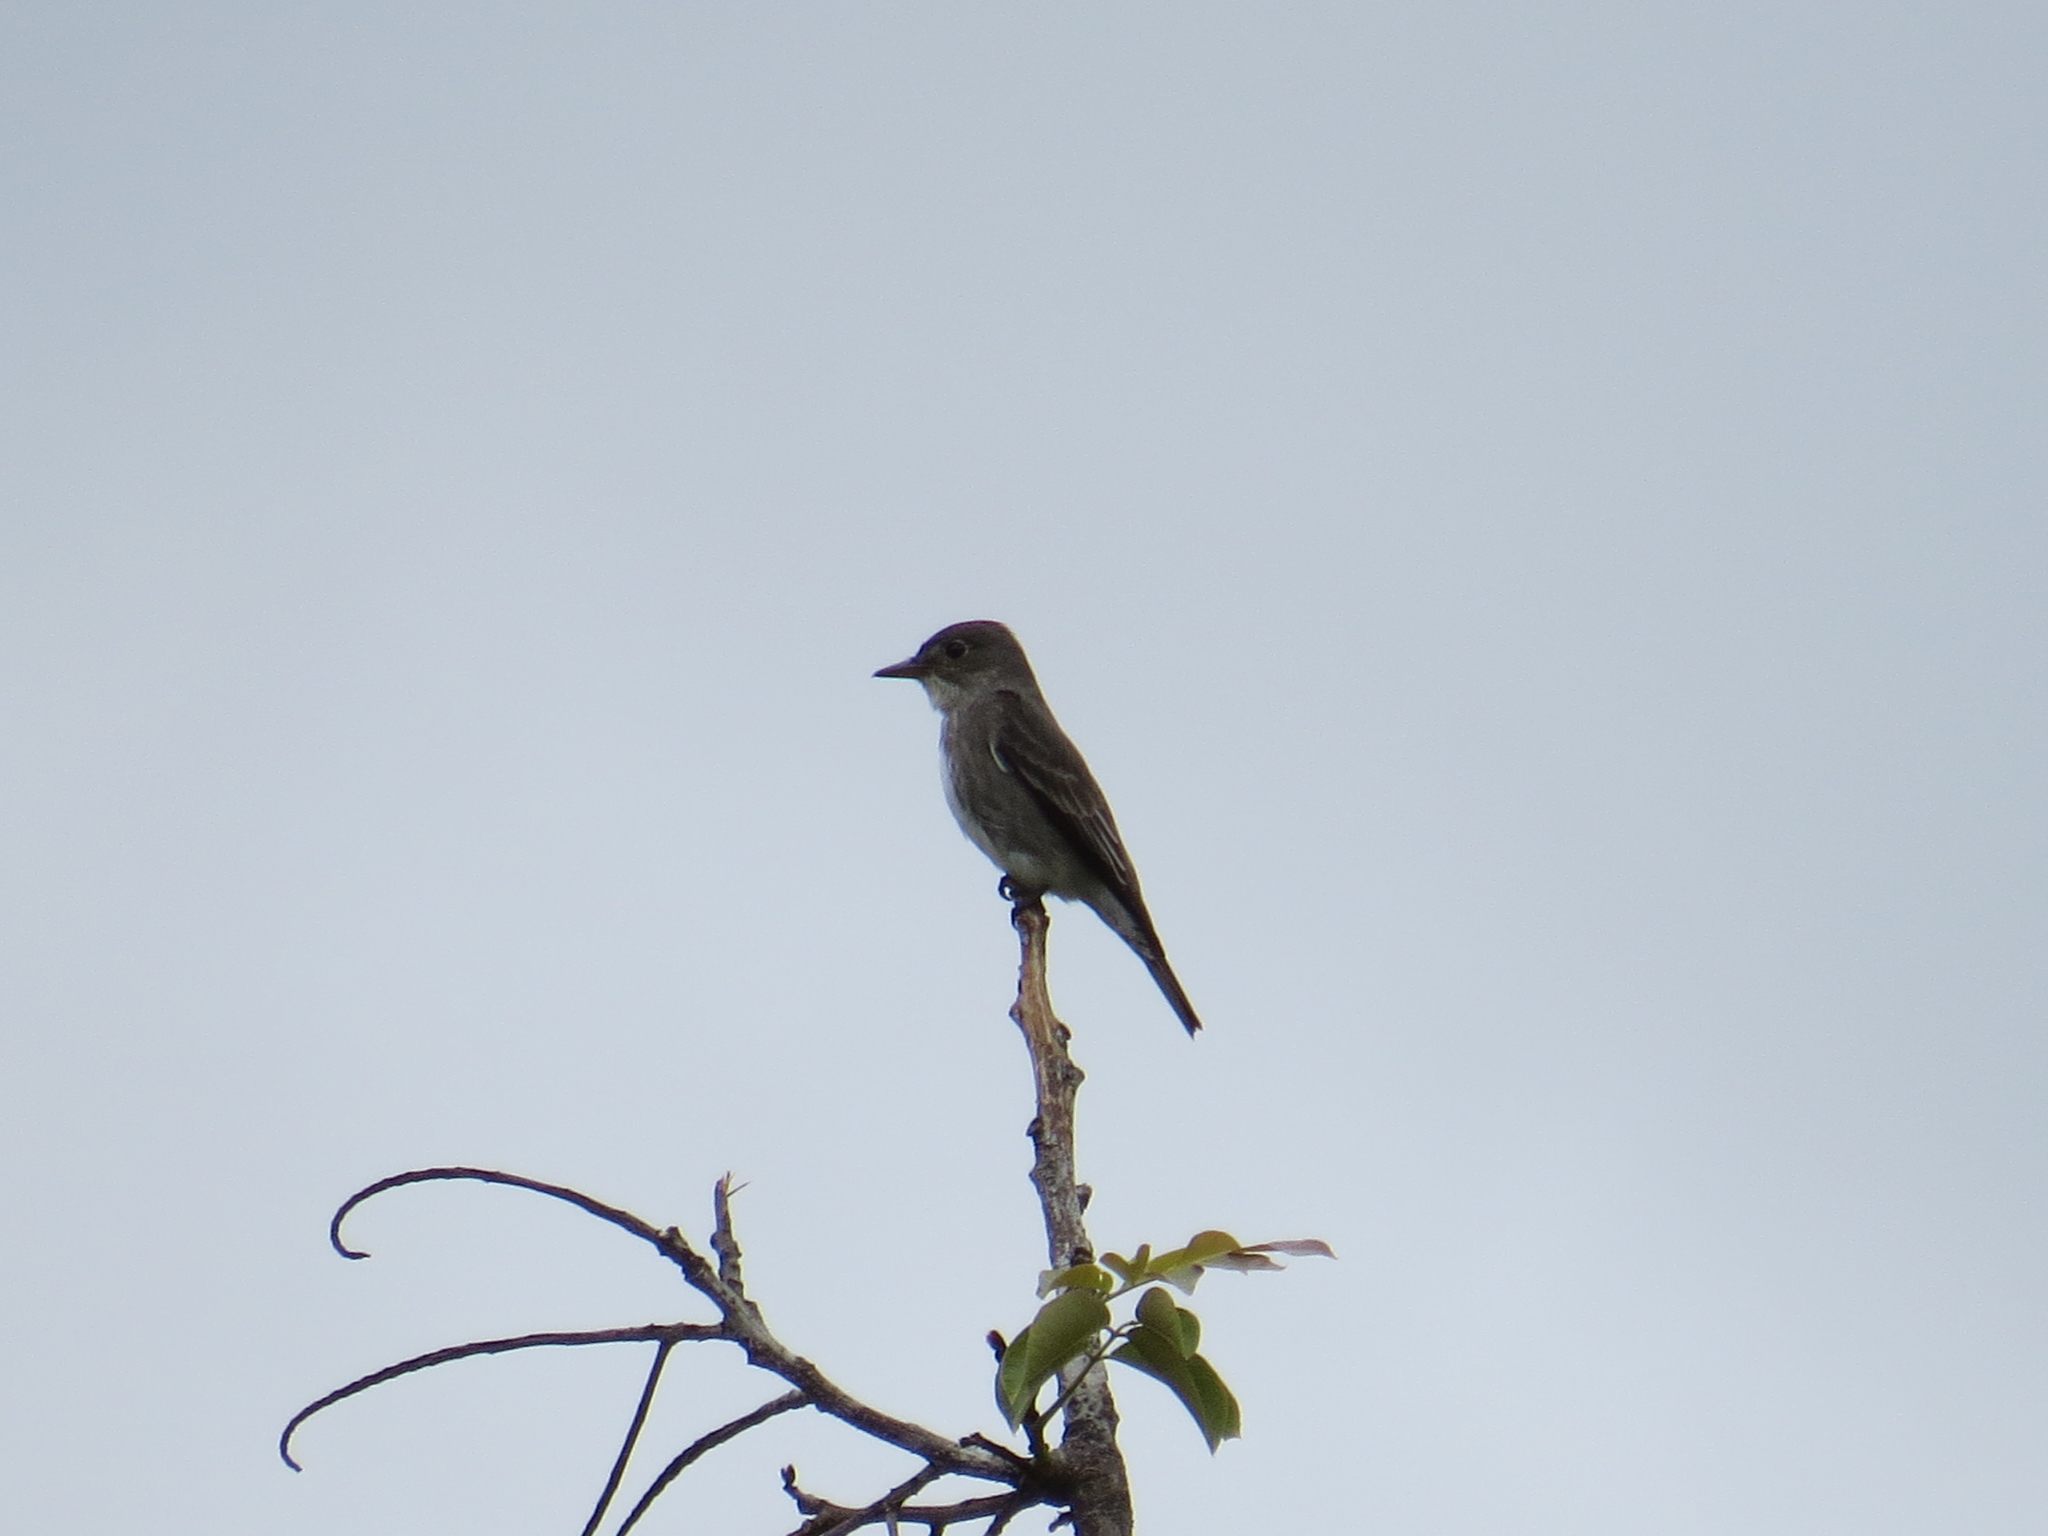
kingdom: Animalia
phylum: Chordata
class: Aves
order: Passeriformes
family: Tyrannidae
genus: Contopus
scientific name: Contopus cooperi
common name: Olive-sided flycatcher
